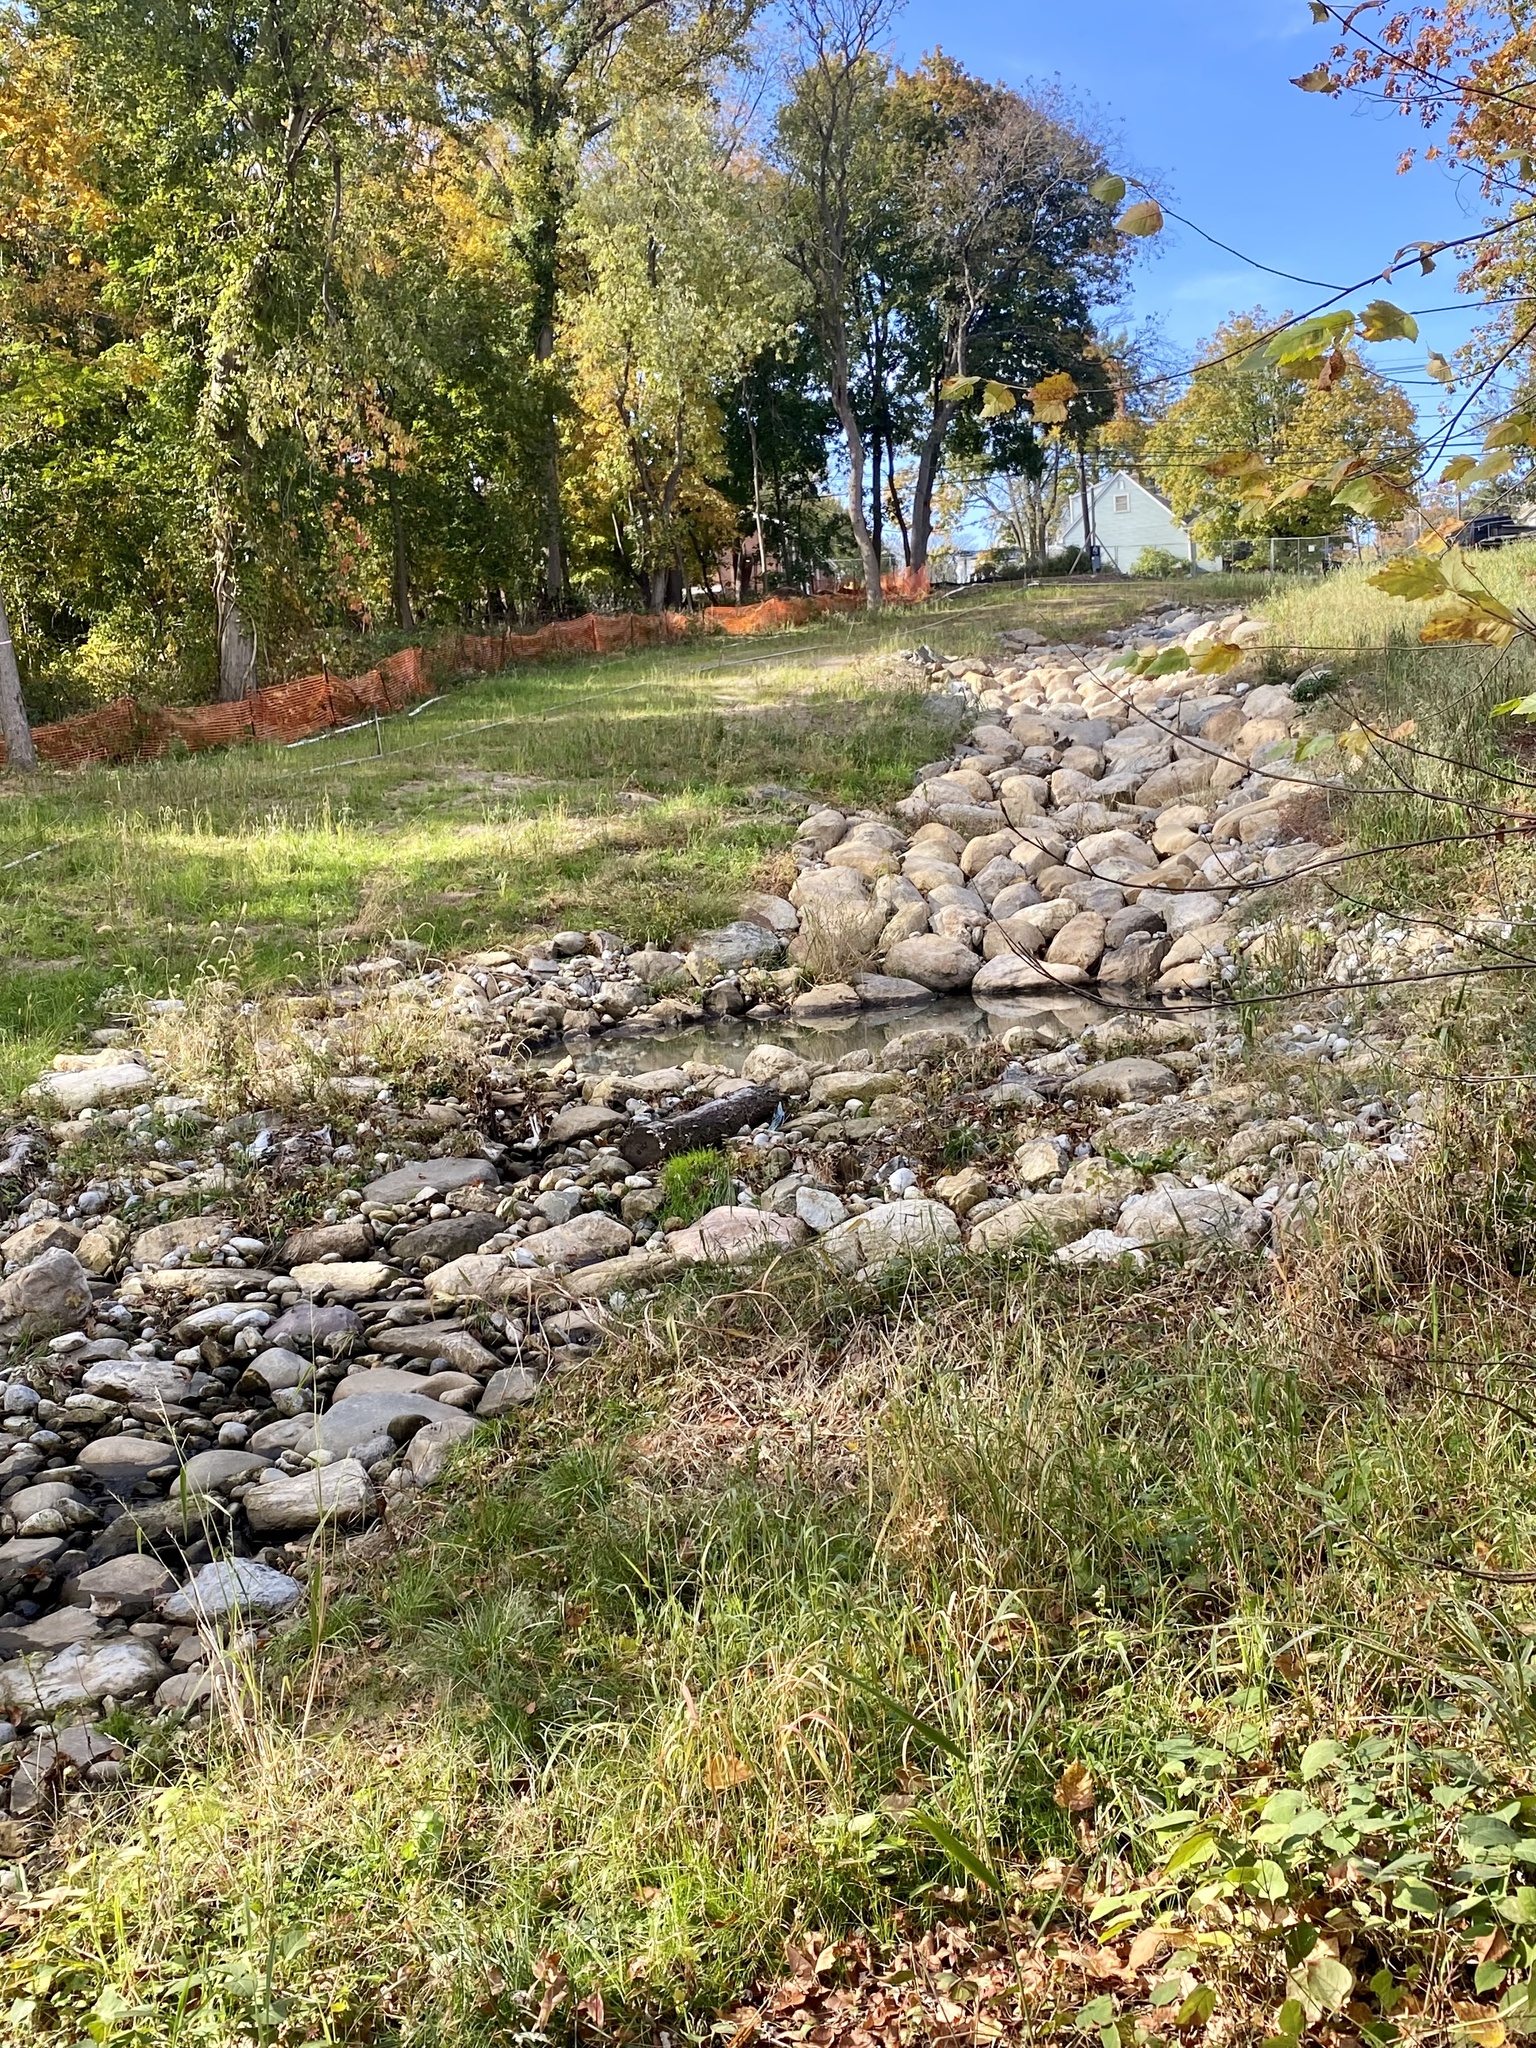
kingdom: Plantae
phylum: Tracheophyta
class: Magnoliopsida
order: Cornales
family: Cornaceae
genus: Cornus
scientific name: Cornus amomum
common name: Silky dogwood
